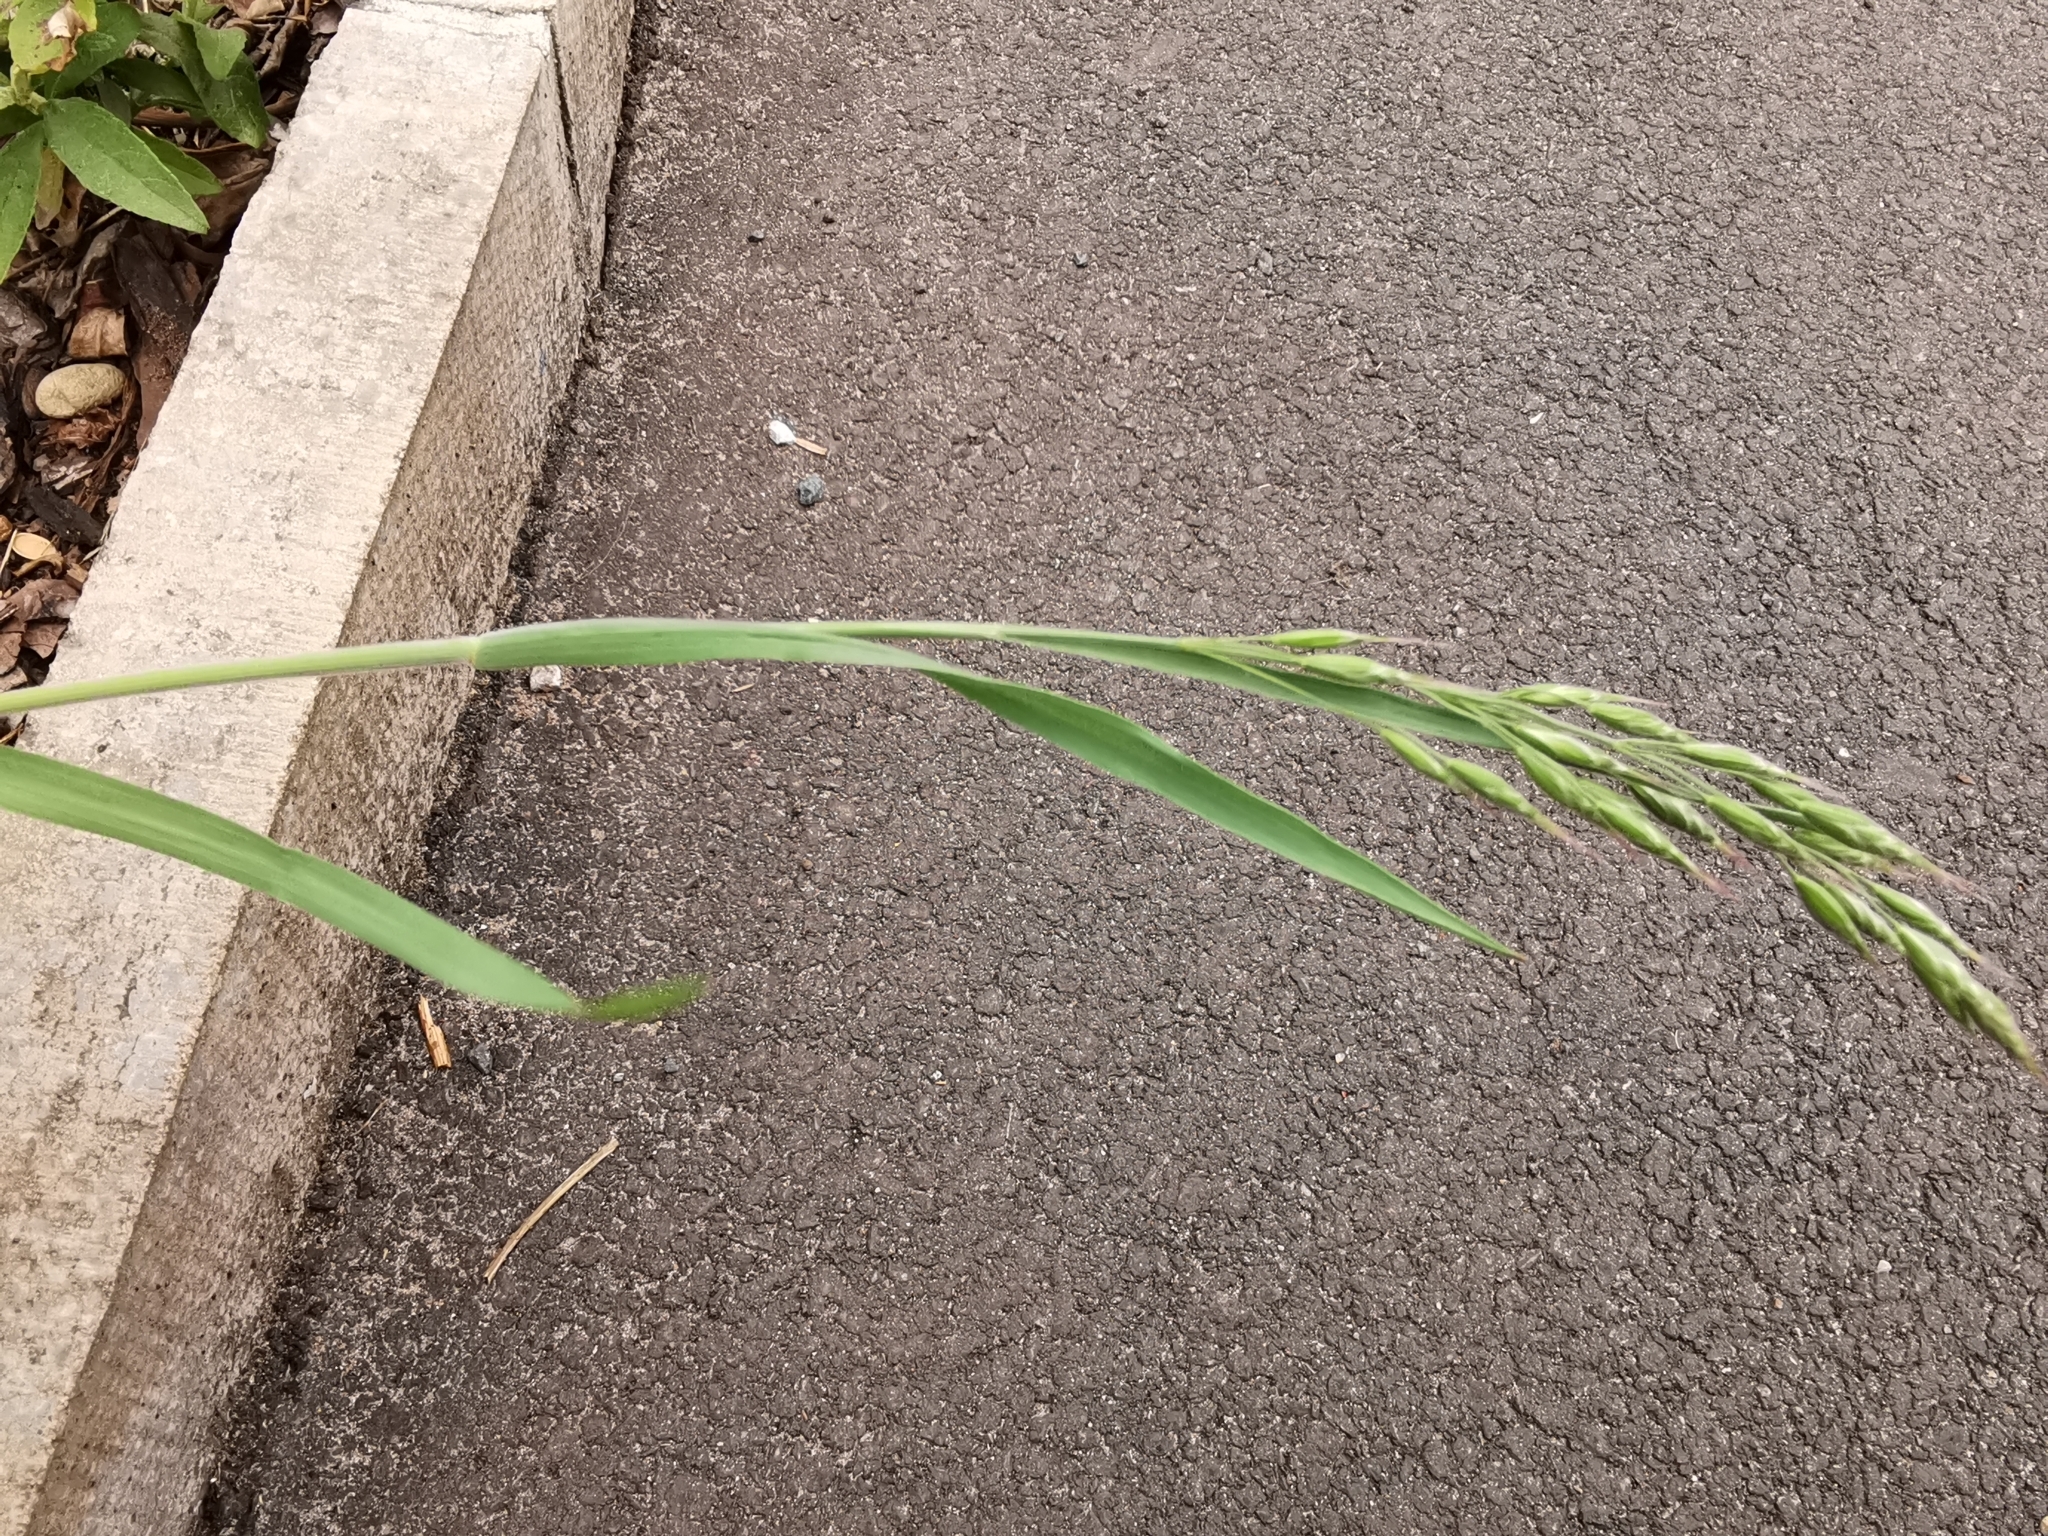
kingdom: Plantae
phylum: Tracheophyta
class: Liliopsida
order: Poales
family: Poaceae
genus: Holcus
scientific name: Holcus lanatus
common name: Yorkshire-fog
